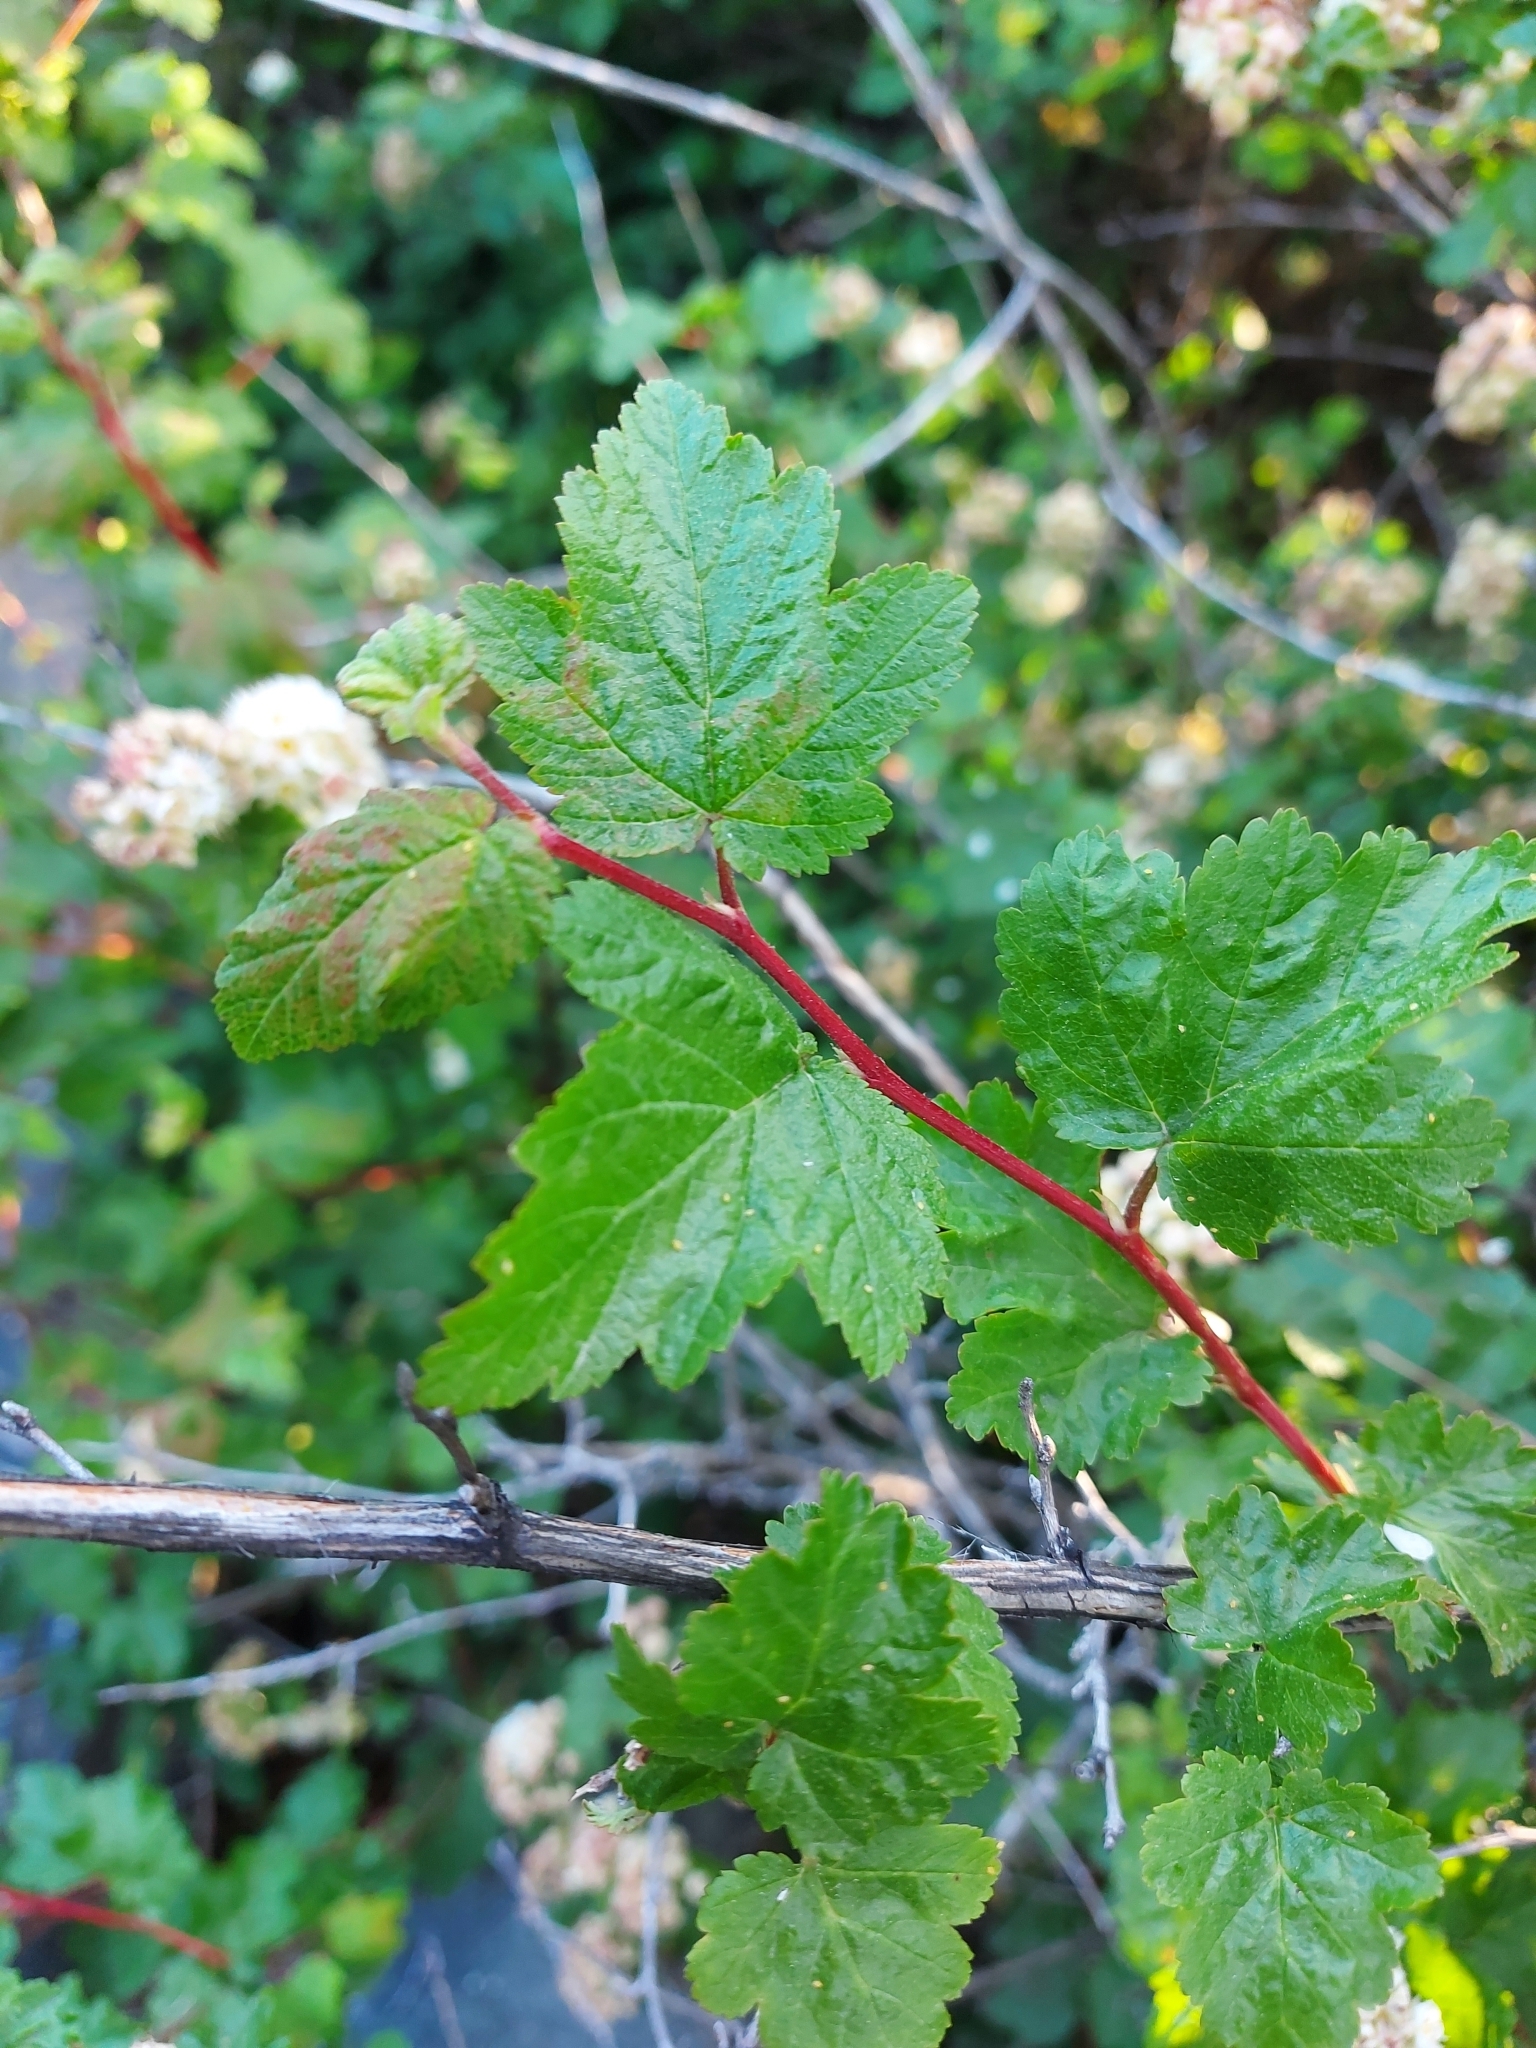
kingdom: Plantae
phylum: Tracheophyta
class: Magnoliopsida
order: Rosales
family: Rosaceae
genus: Physocarpus
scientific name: Physocarpus malvaceus
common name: Mallow ninebark
